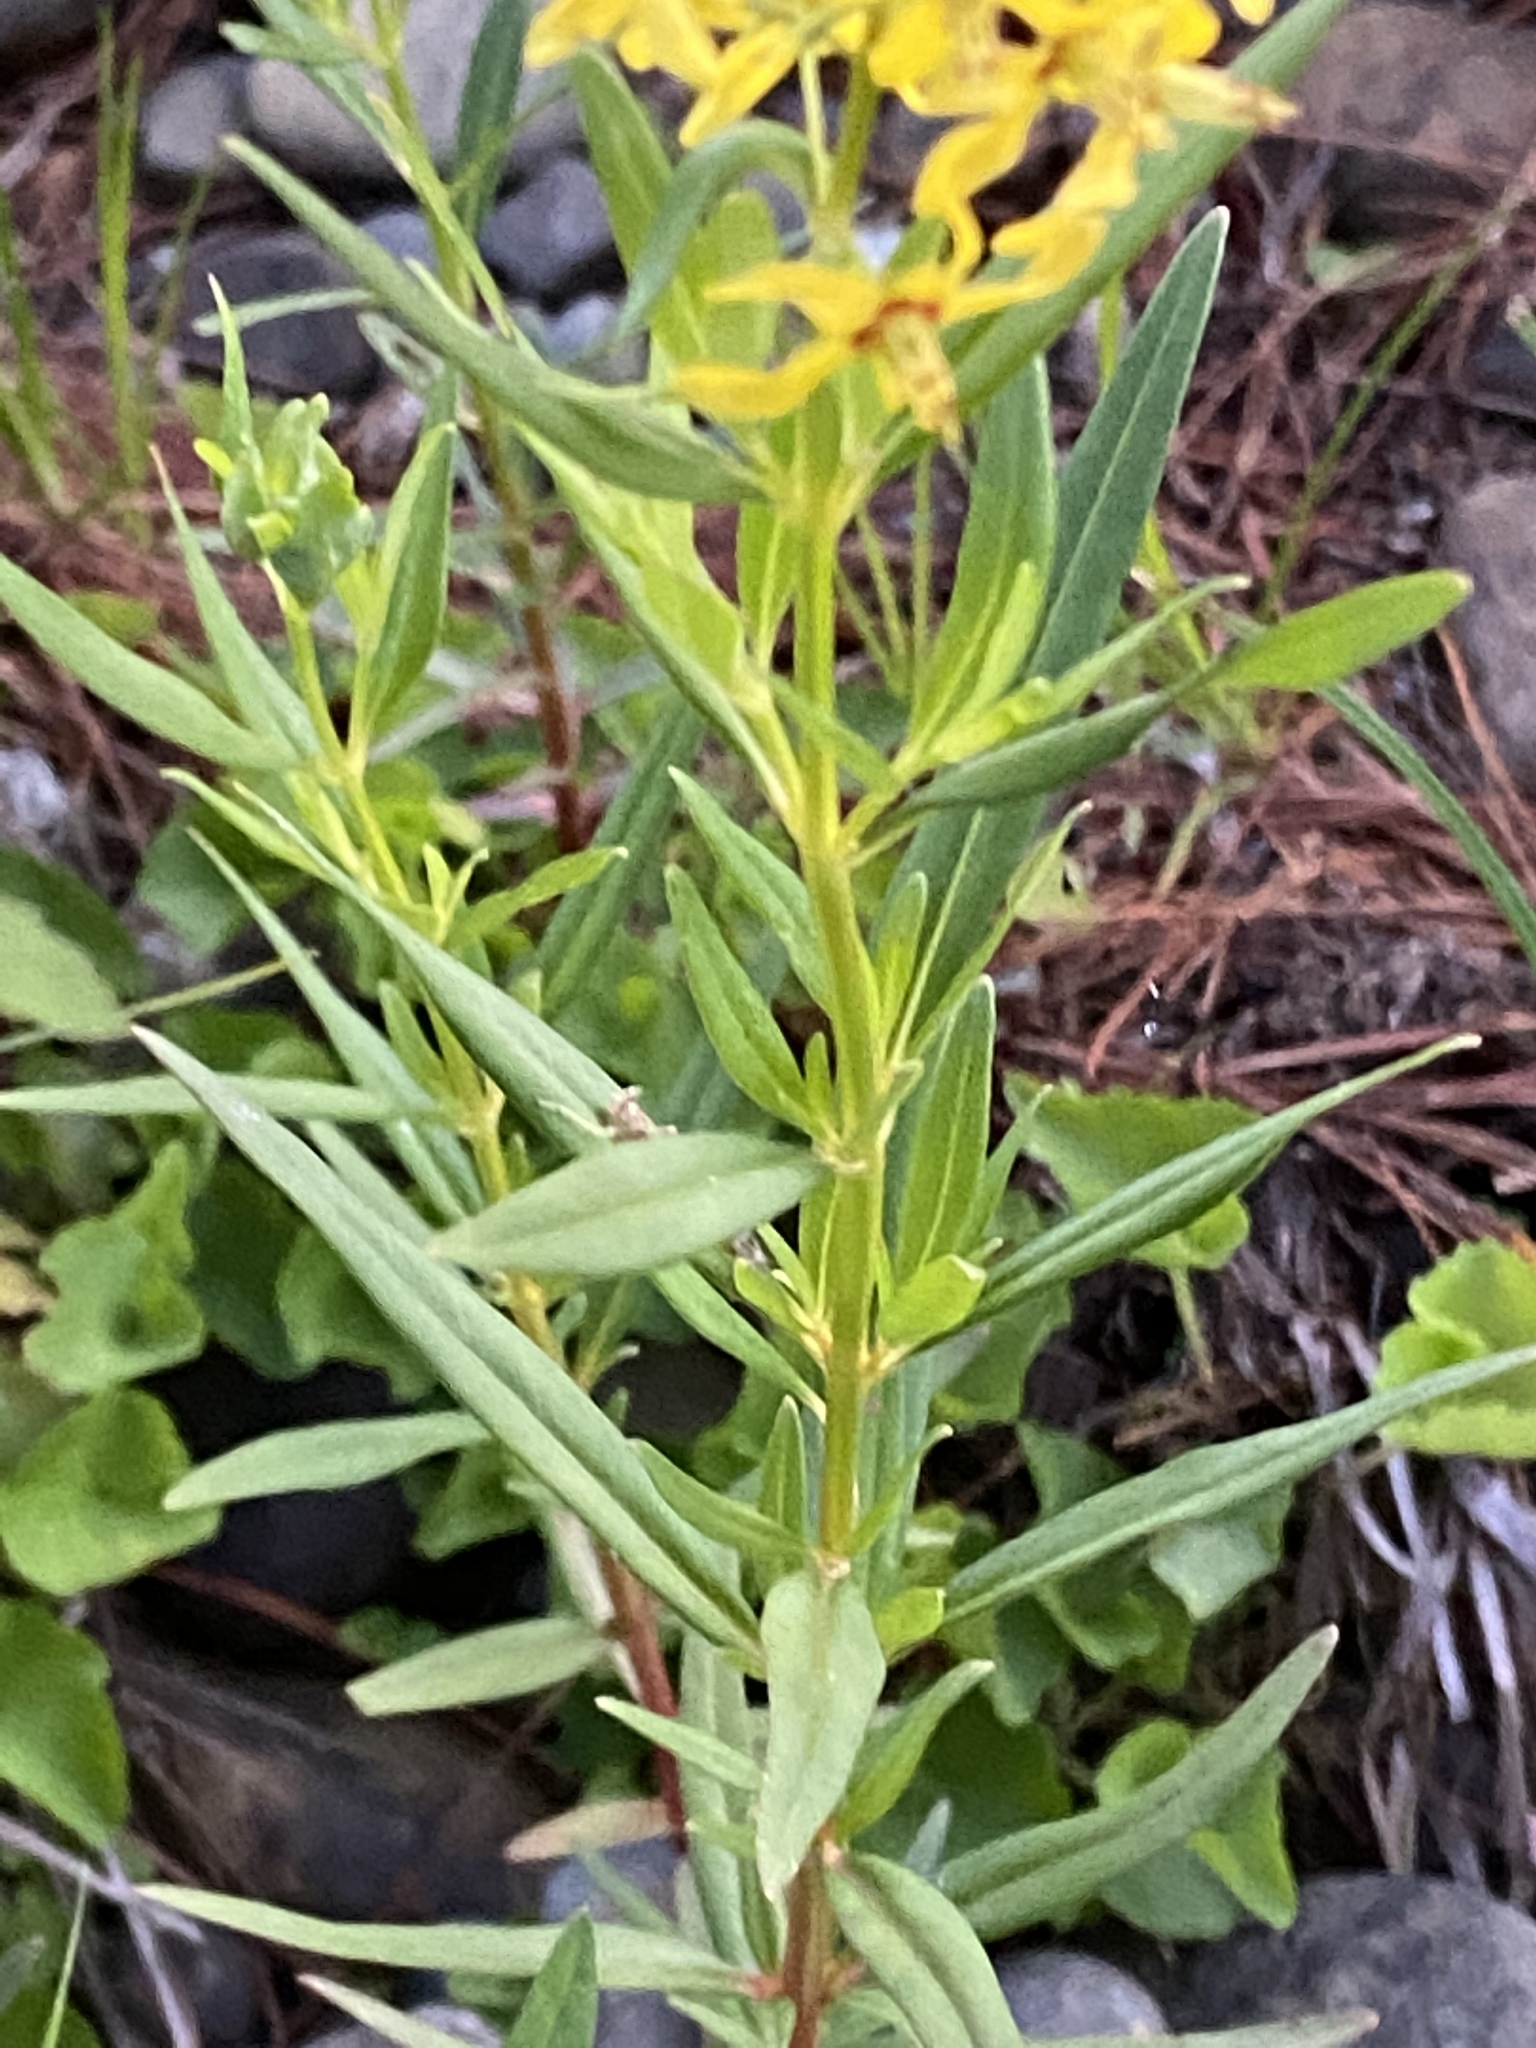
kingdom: Plantae
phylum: Tracheophyta
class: Magnoliopsida
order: Ericales
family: Primulaceae
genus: Lysimachia
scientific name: Lysimachia terrestris
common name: Lake loosestrife
